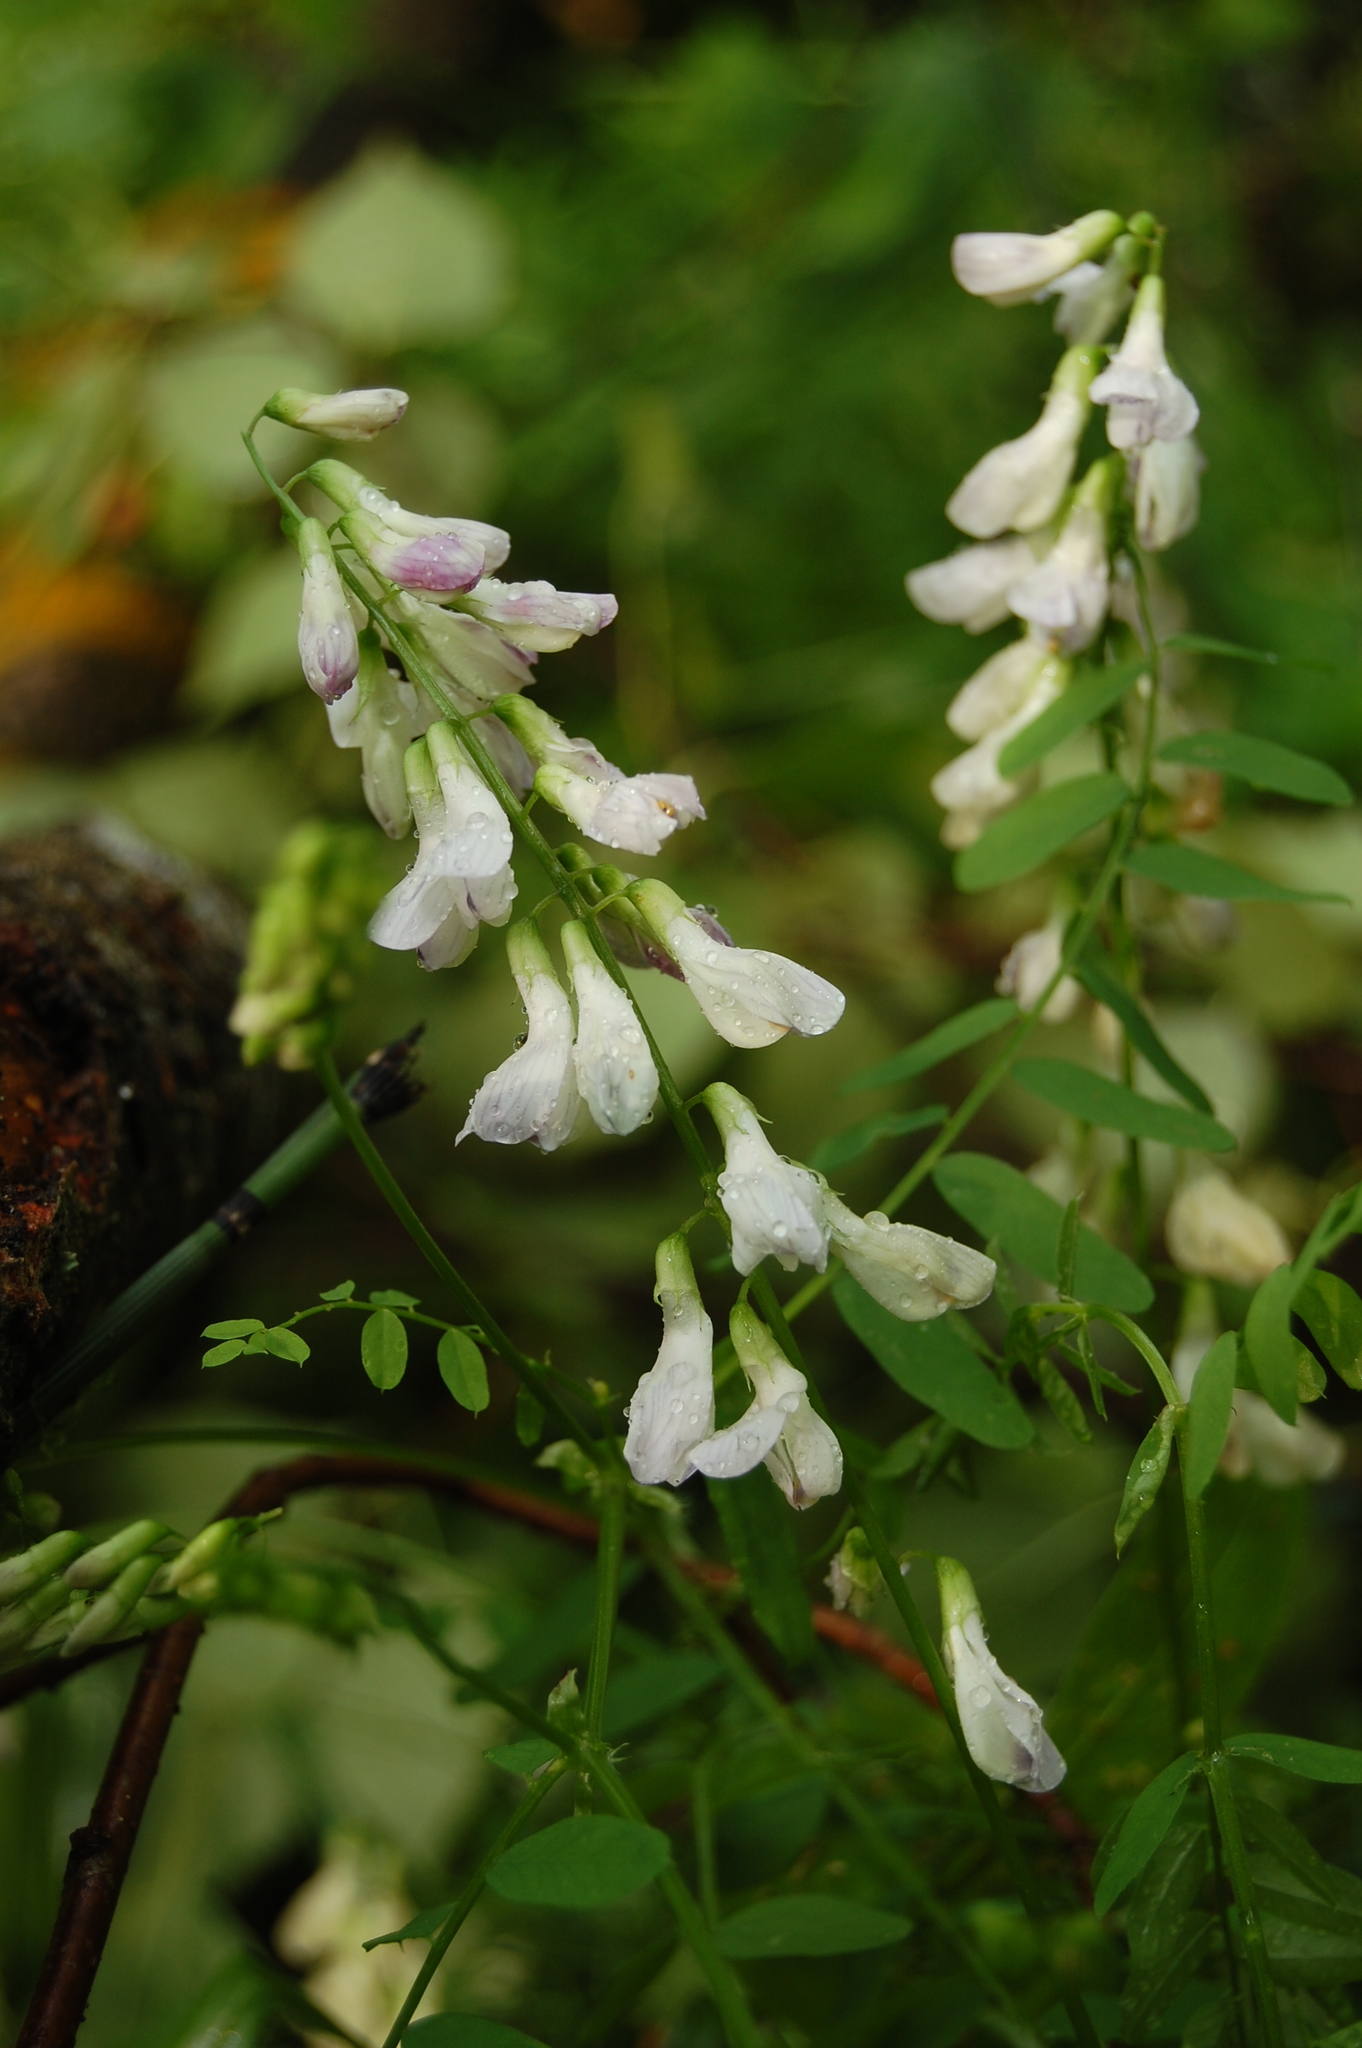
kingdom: Plantae
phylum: Tracheophyta
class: Magnoliopsida
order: Fabales
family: Fabaceae
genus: Vicia
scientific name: Vicia sylvatica
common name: Wood vetch
